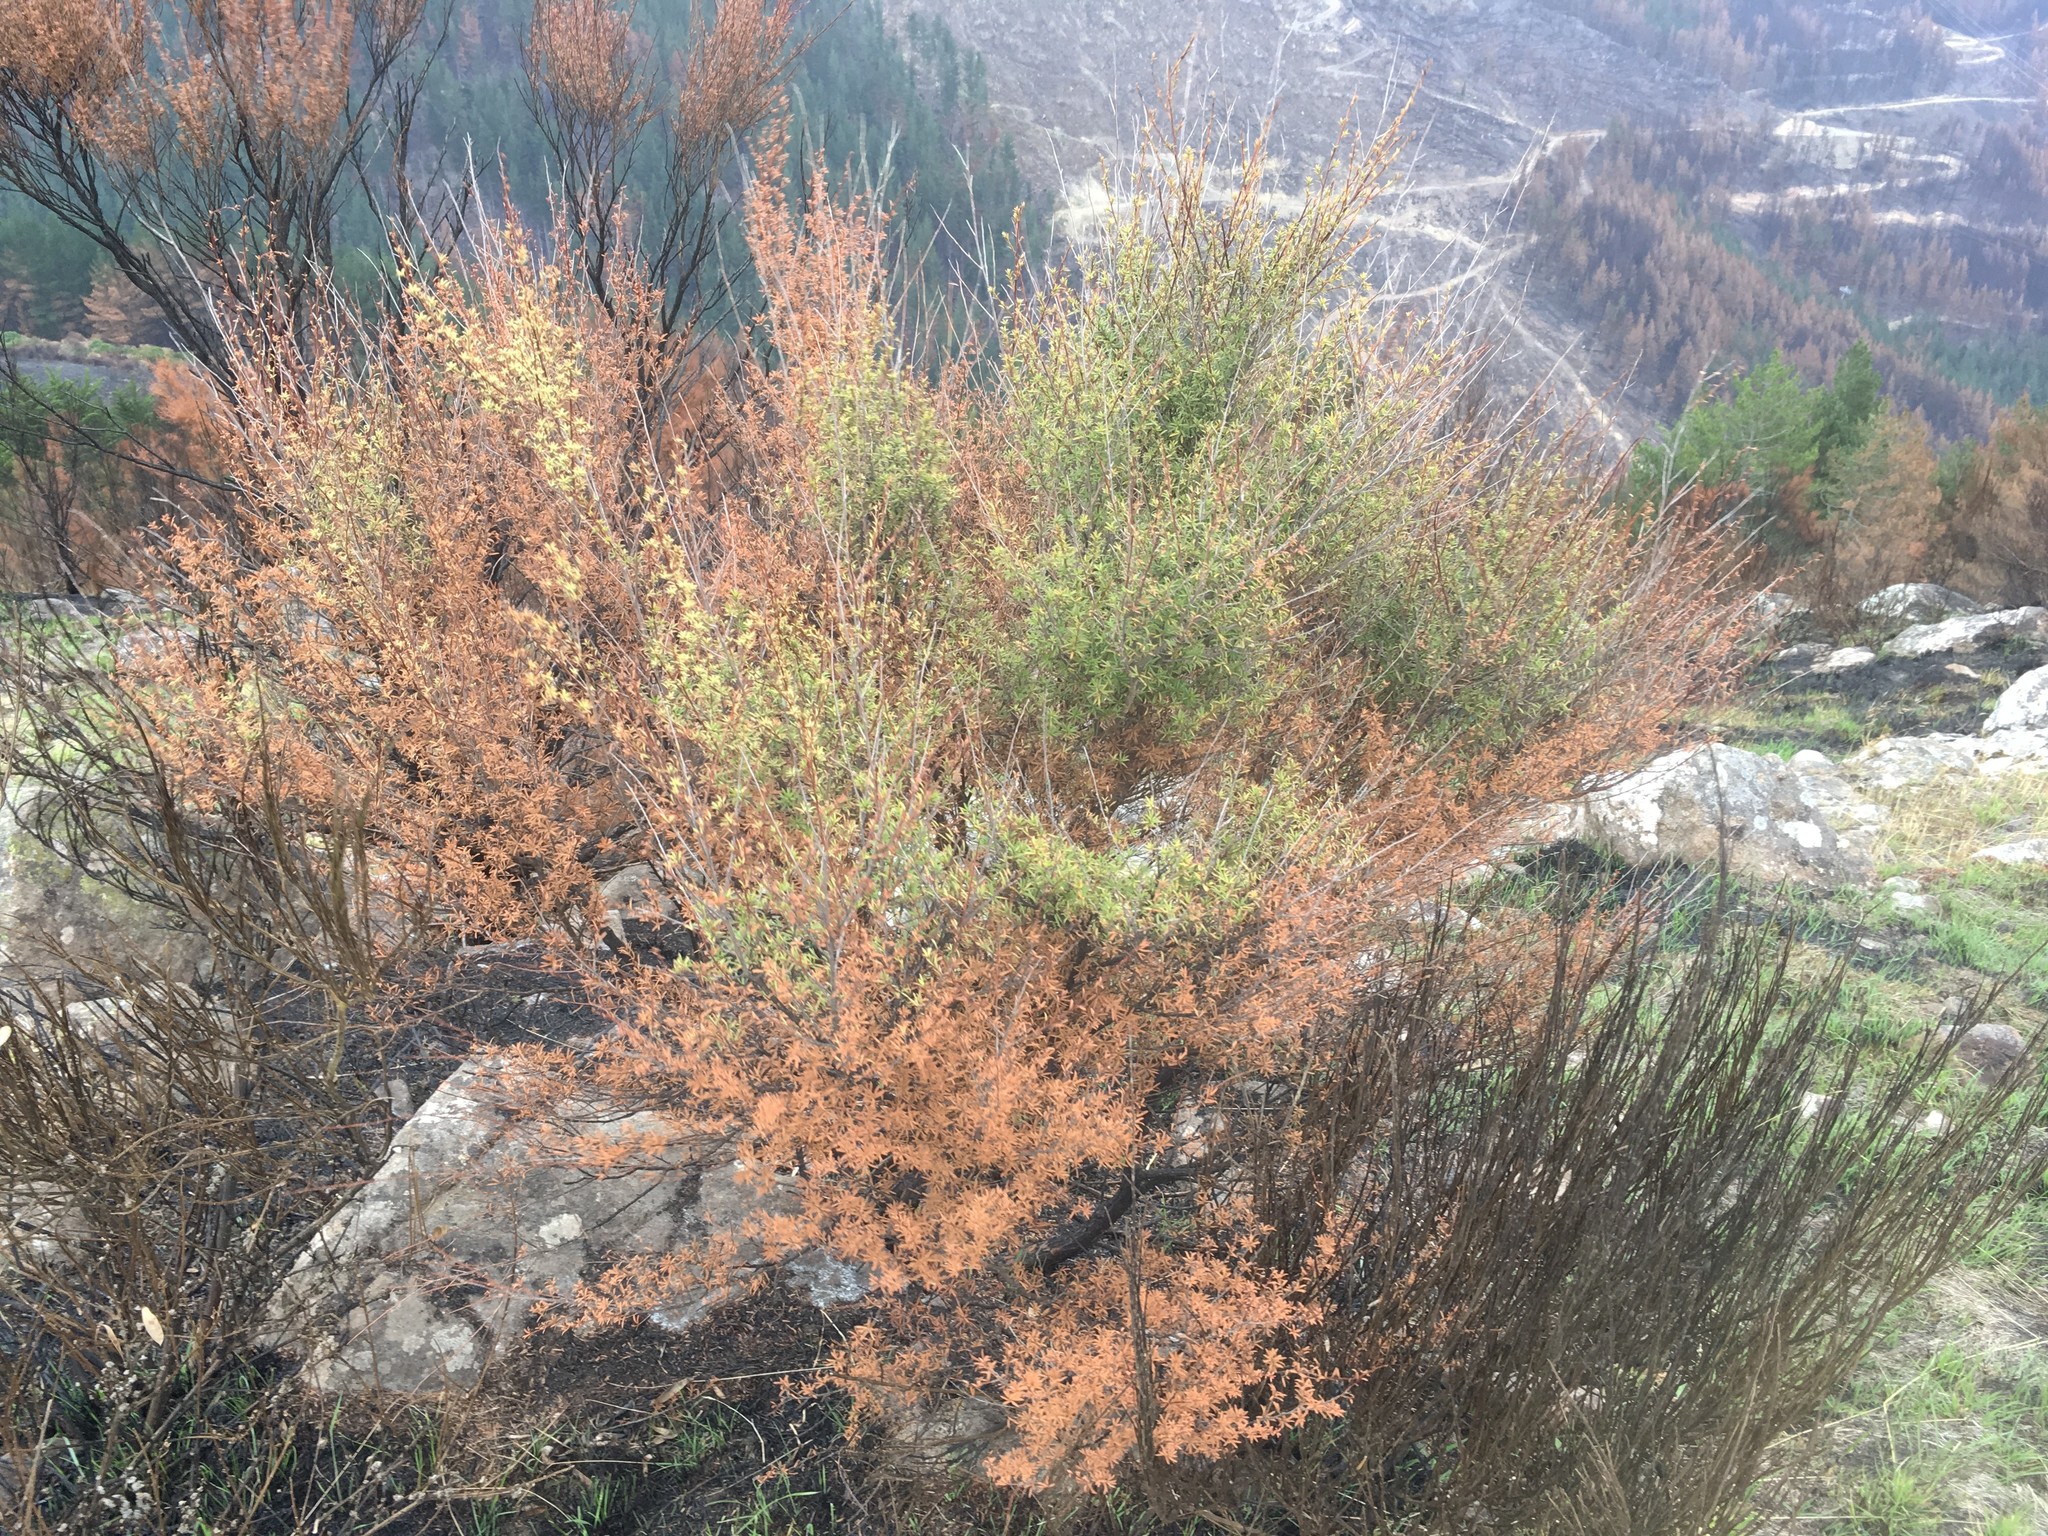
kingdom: Plantae
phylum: Tracheophyta
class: Magnoliopsida
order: Myrtales
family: Myrtaceae
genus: Kunzea
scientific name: Kunzea robusta
